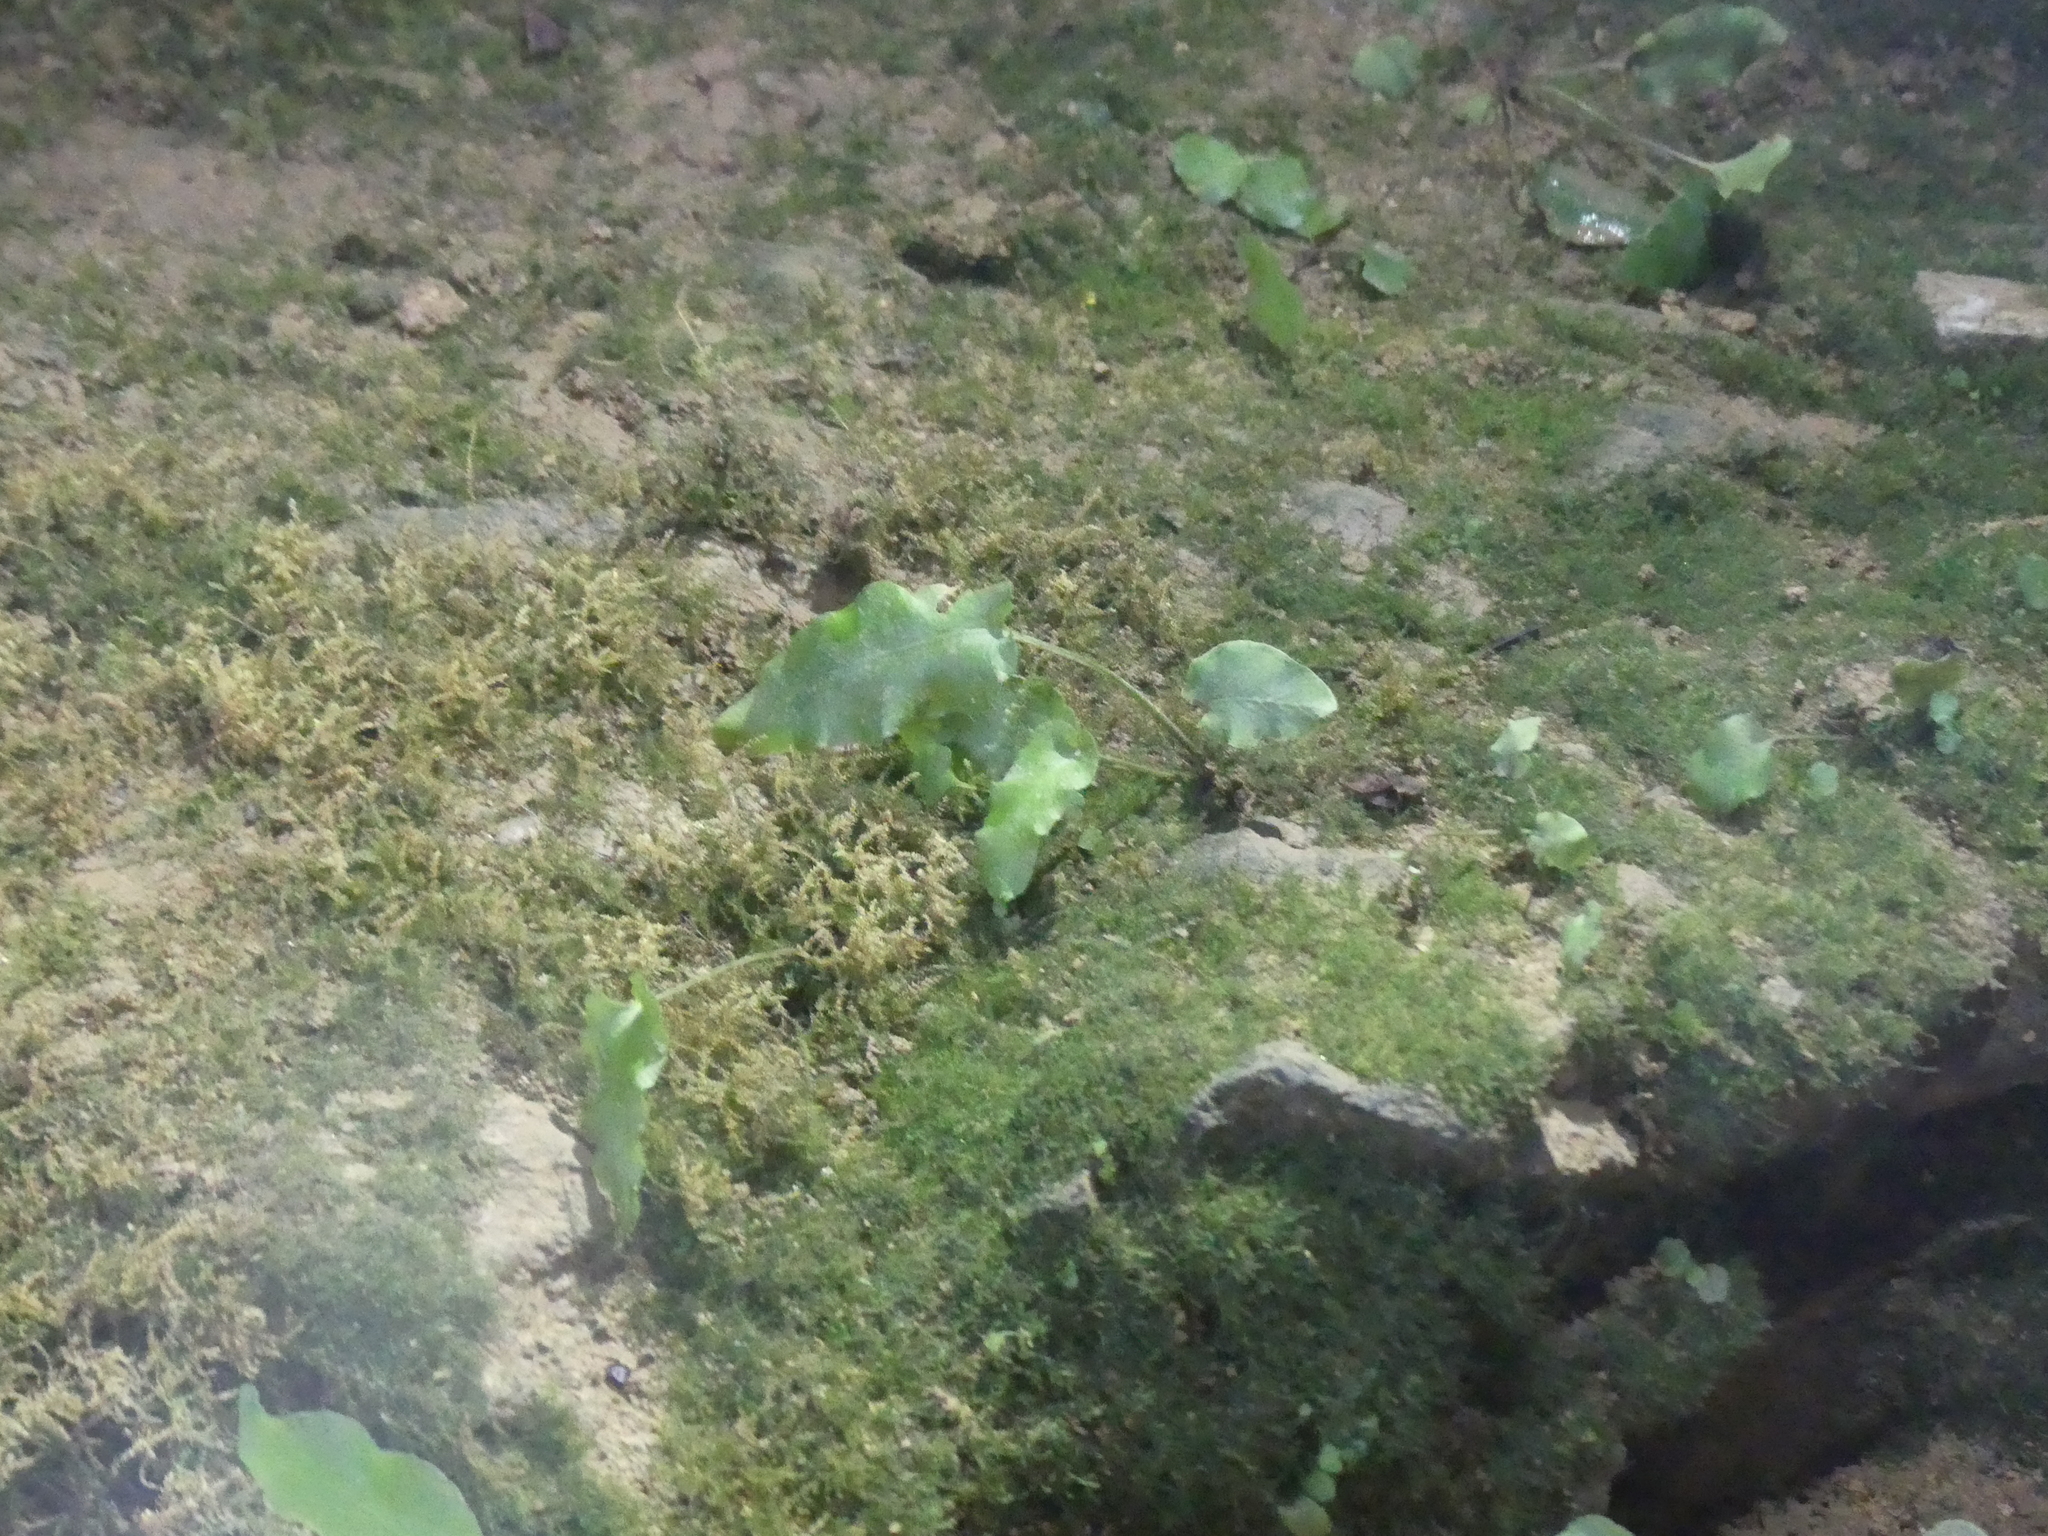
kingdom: Plantae
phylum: Tracheophyta
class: Polypodiopsida
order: Polypodiales
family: Aspleniaceae
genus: Asplenium
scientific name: Asplenium scolopendrium
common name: Hart's-tongue fern
